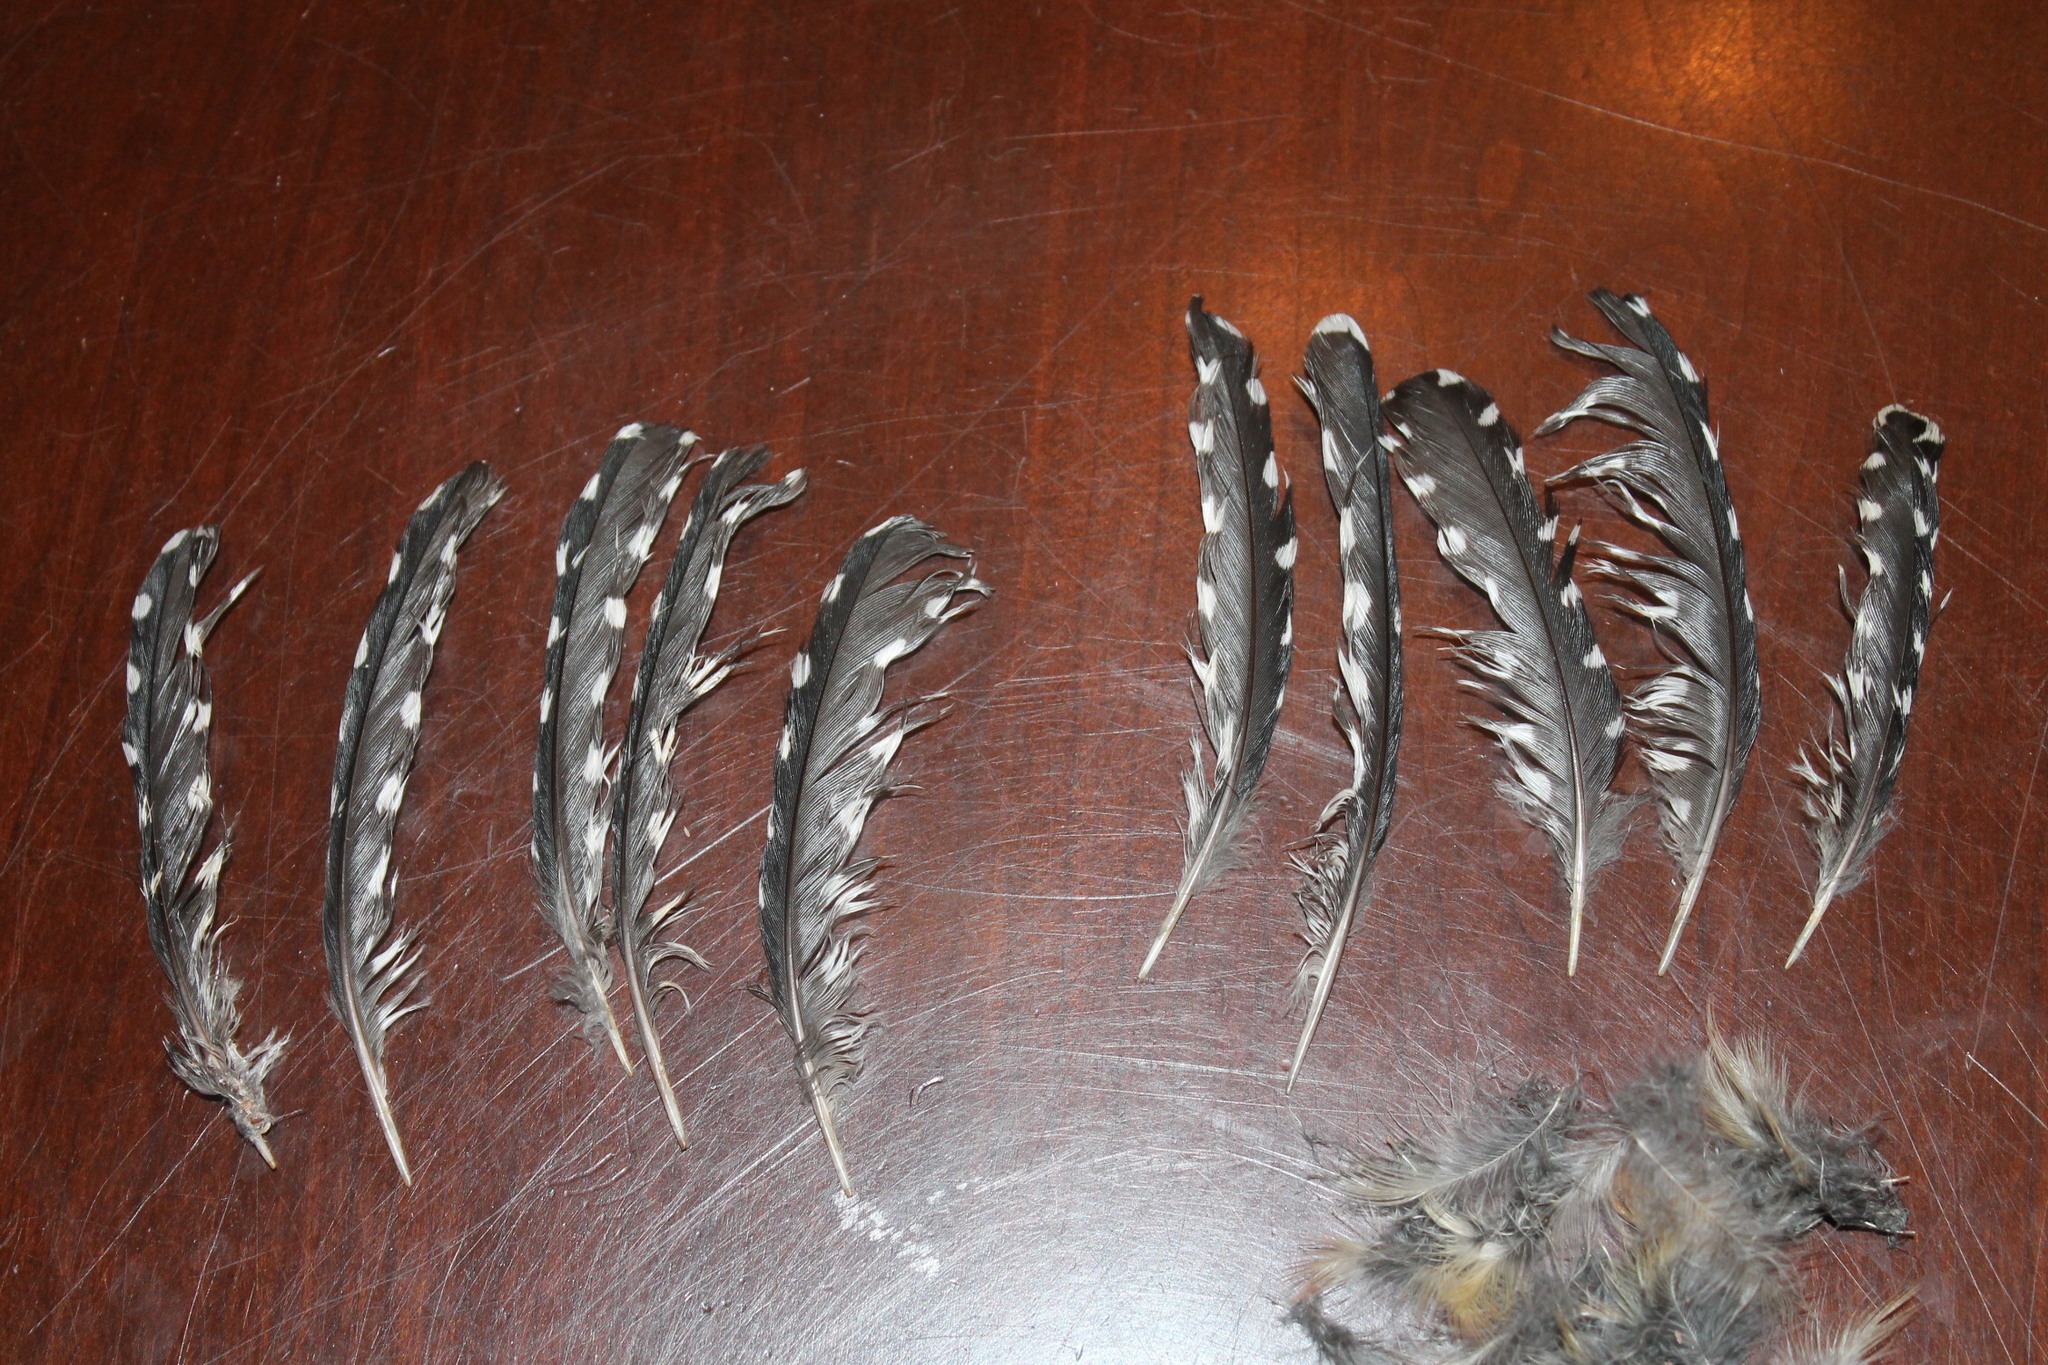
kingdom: Animalia
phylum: Chordata
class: Aves
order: Piciformes
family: Picidae
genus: Melanerpes
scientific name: Melanerpes carolinus
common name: Red-bellied woodpecker
